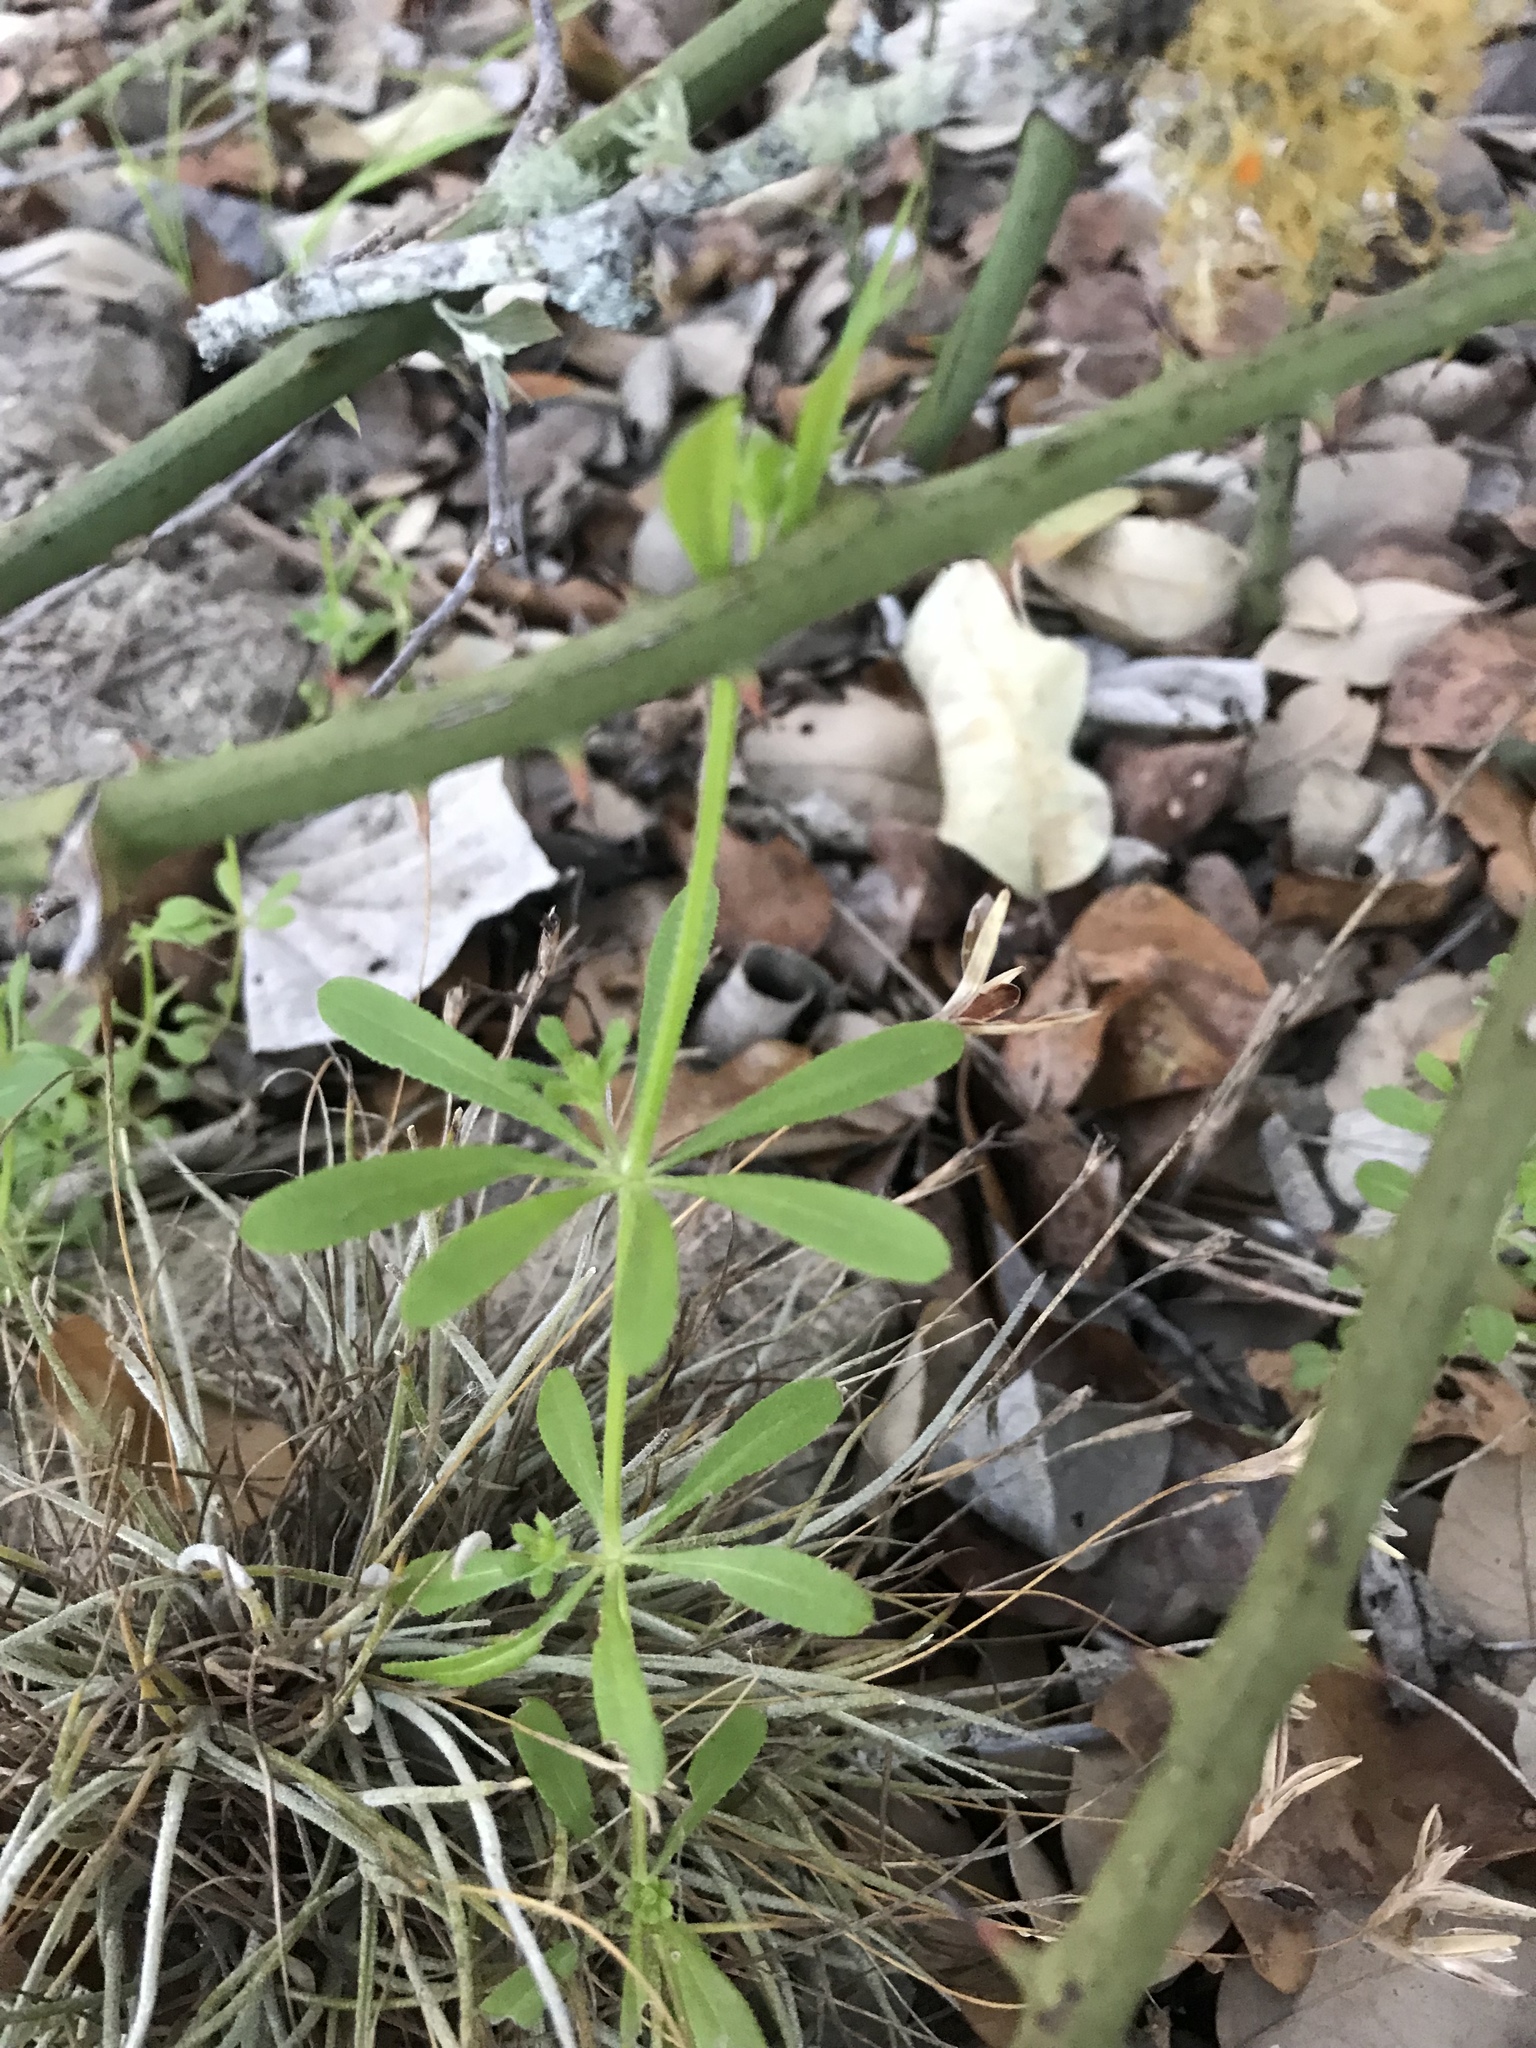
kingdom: Plantae
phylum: Tracheophyta
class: Magnoliopsida
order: Gentianales
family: Rubiaceae
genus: Galium
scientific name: Galium aparine
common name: Cleavers
